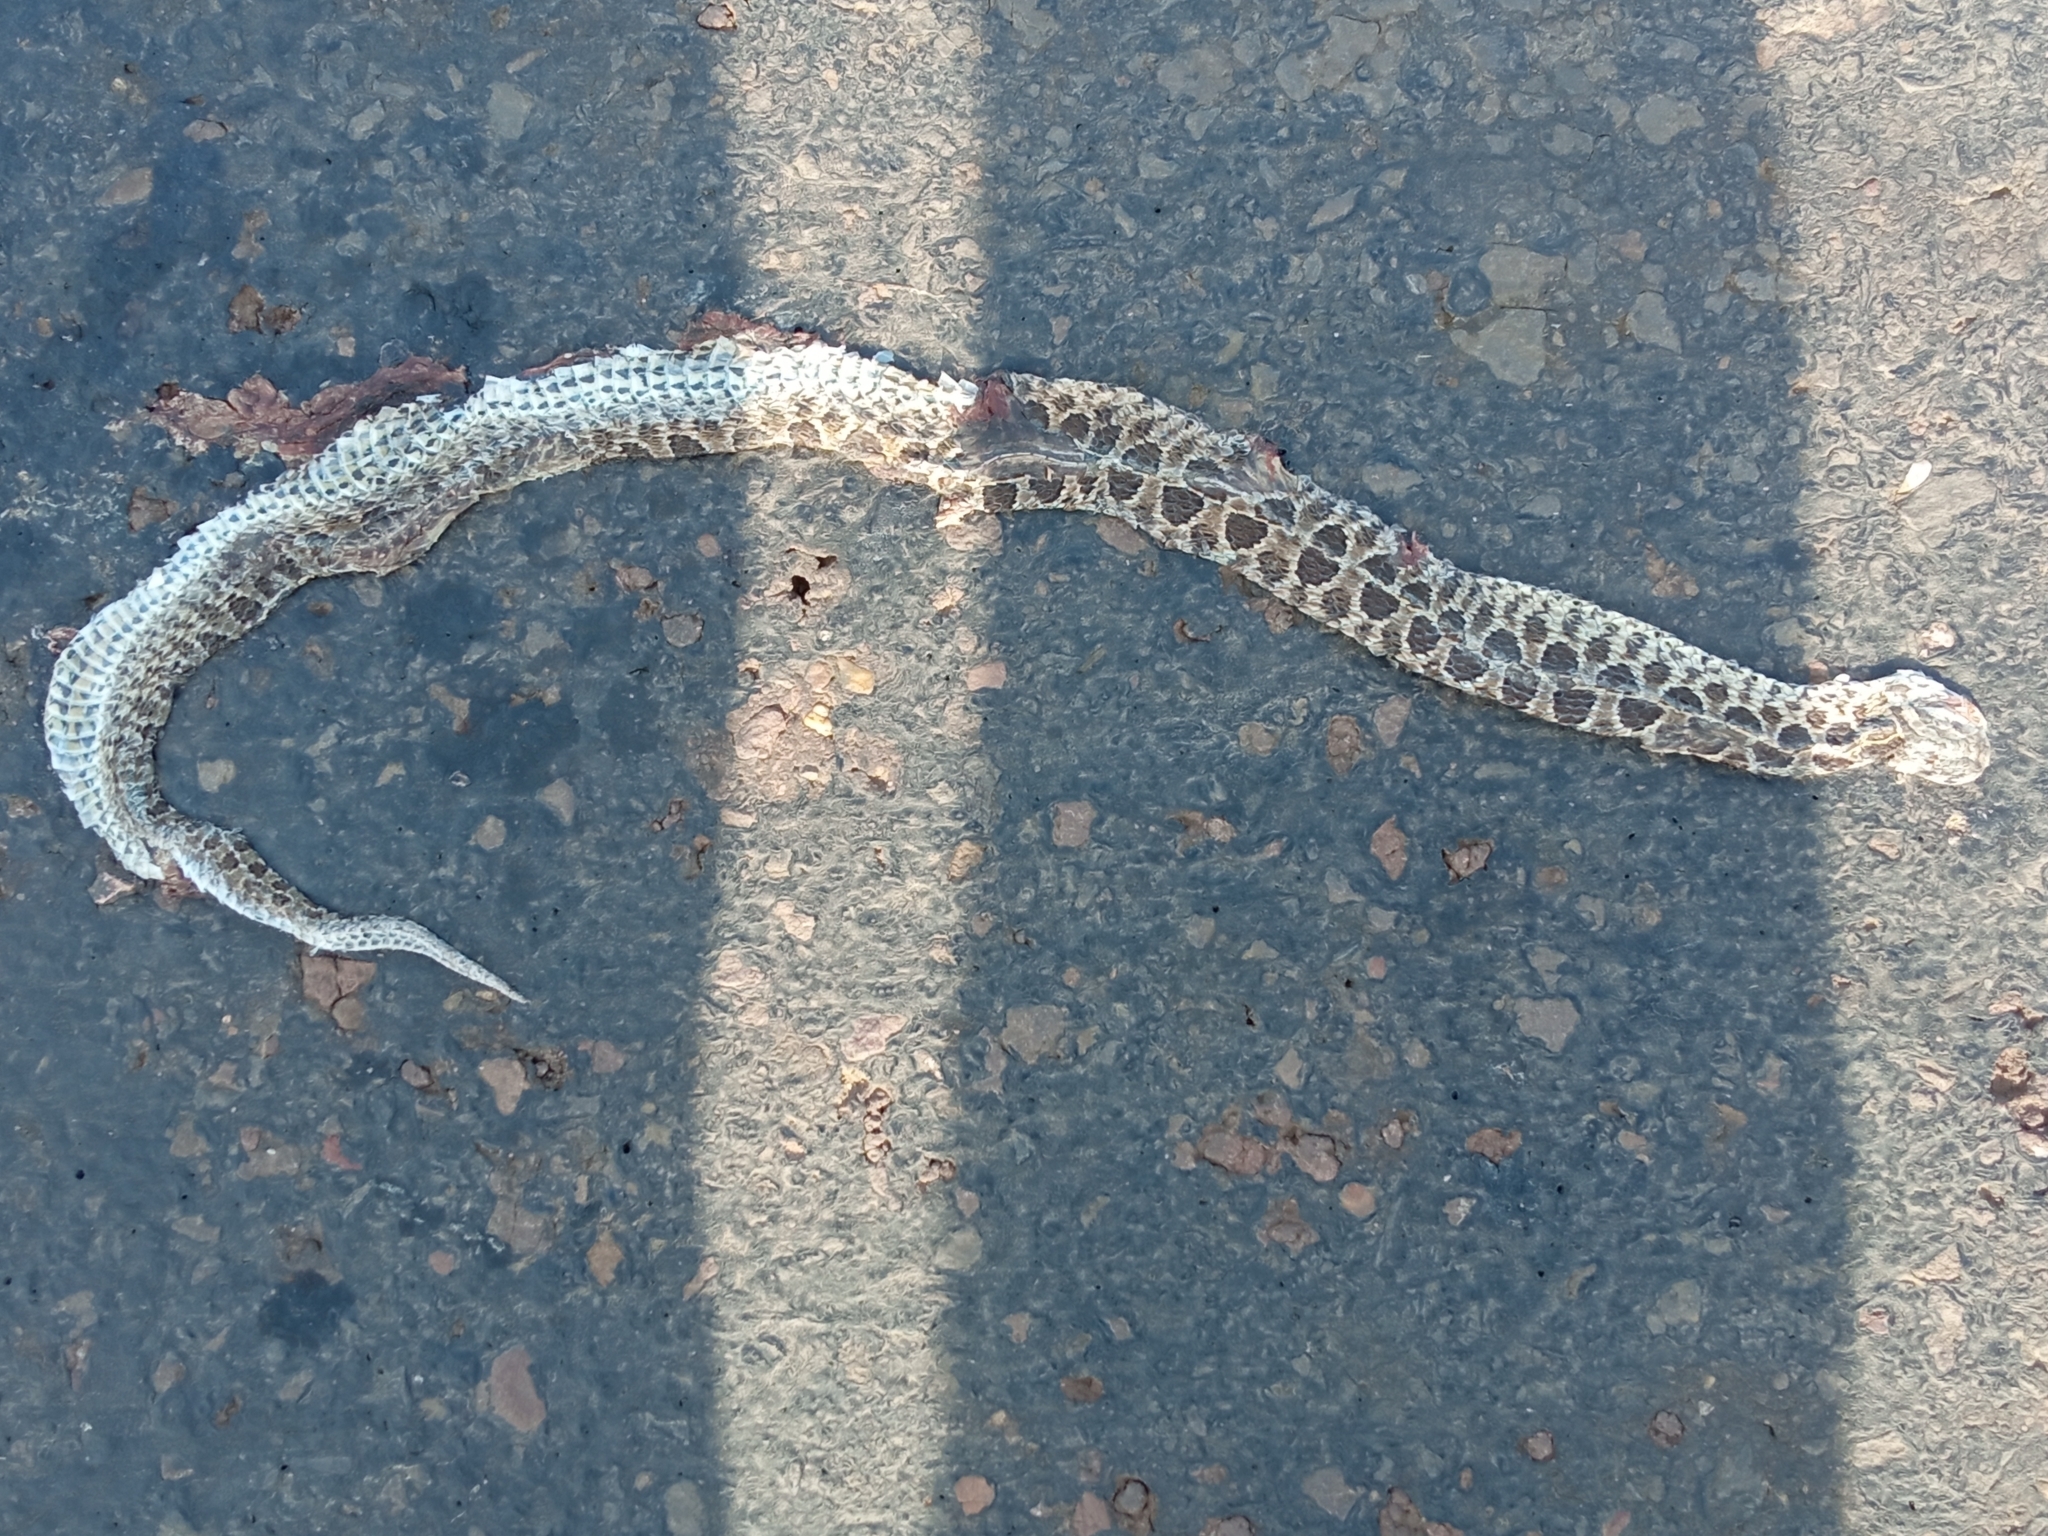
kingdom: Animalia
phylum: Chordata
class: Squamata
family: Colubridae
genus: Tachymenis
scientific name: Tachymenis
